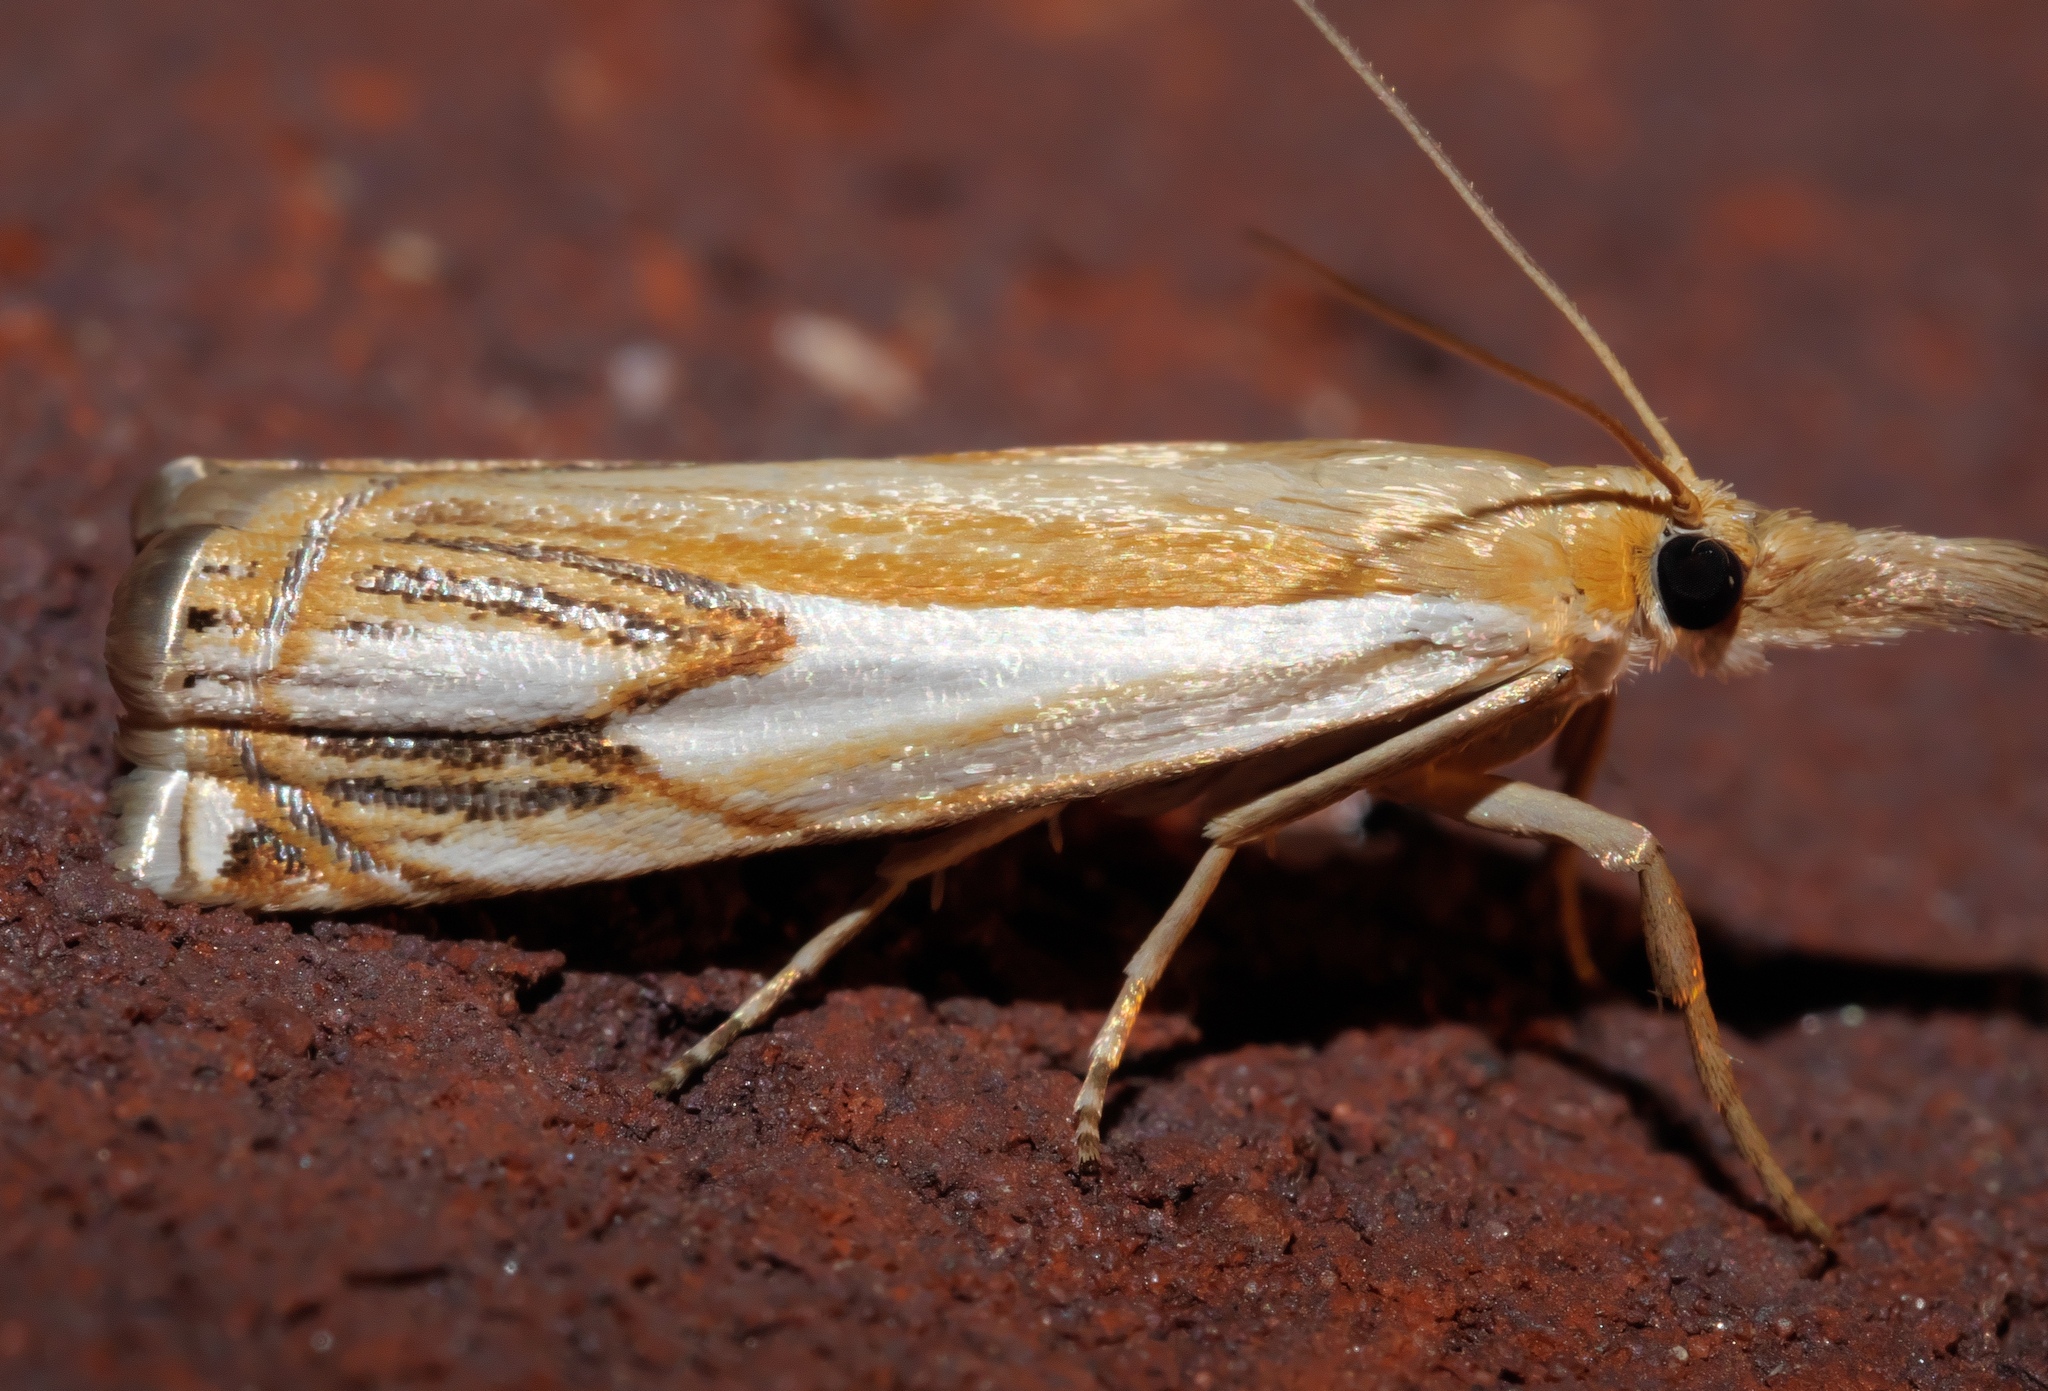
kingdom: Animalia
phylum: Arthropoda
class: Insecta
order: Lepidoptera
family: Crambidae
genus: Crambus
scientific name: Crambus agitatellus
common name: Double-banded grass-veneer
